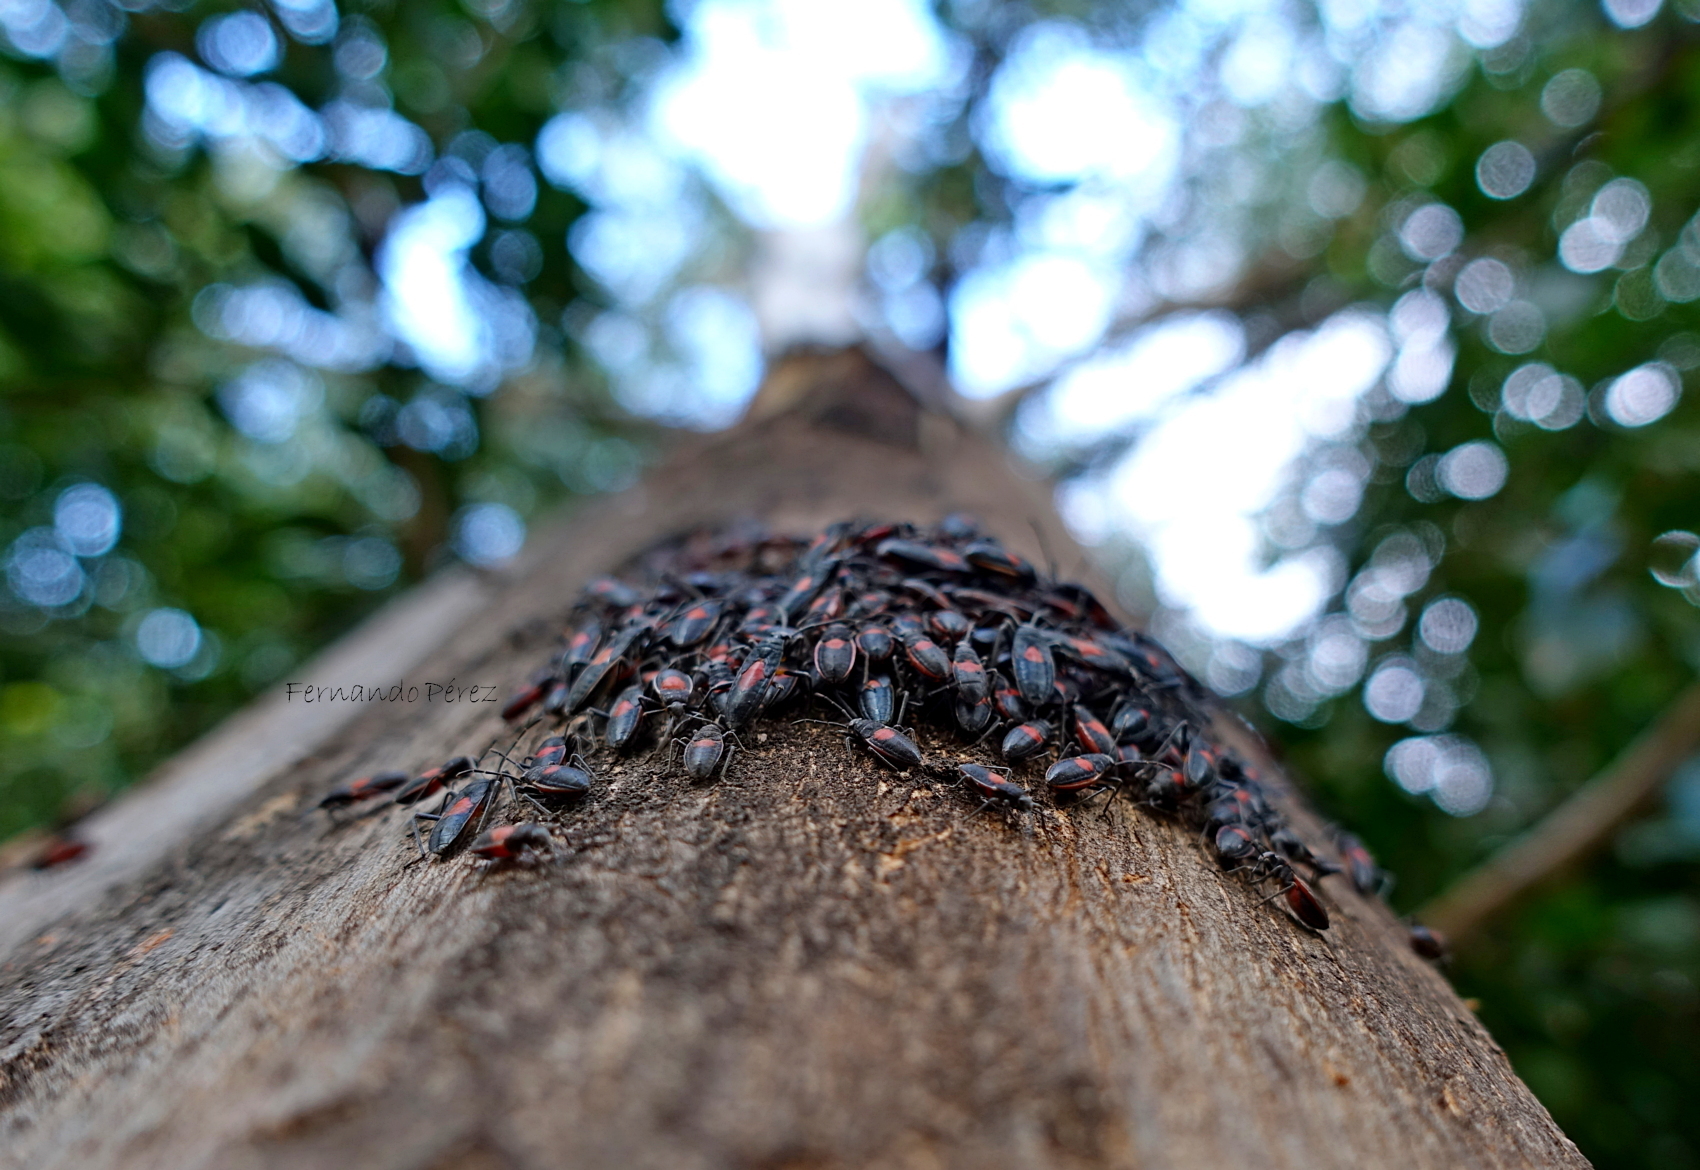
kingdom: Animalia
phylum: Arthropoda
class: Insecta
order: Hemiptera
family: Largidae
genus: Stenomacra
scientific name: Stenomacra marginella
